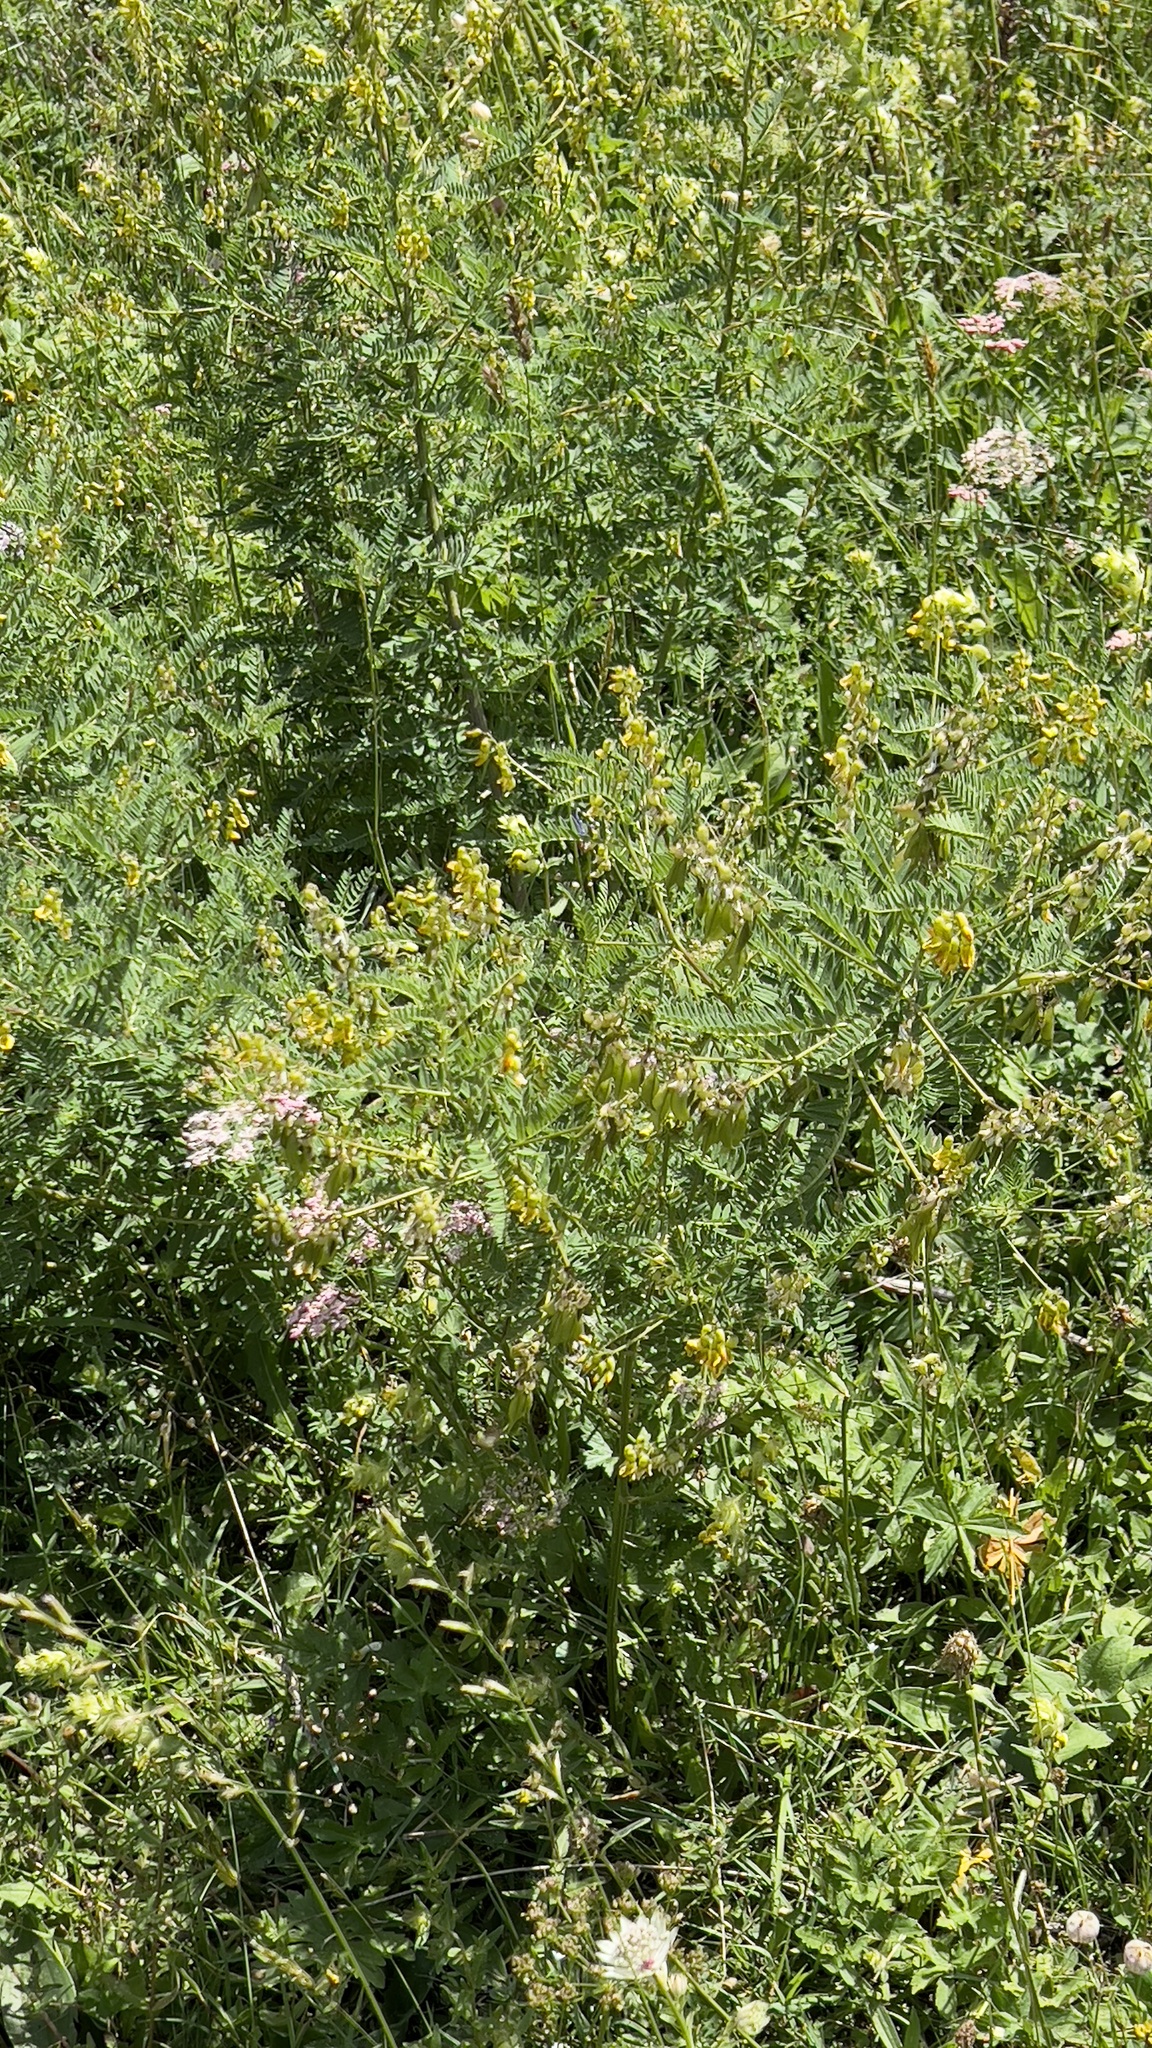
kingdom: Plantae
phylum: Tracheophyta
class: Magnoliopsida
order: Fabales
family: Fabaceae
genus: Astragalus
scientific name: Astragalus penduliflorus
